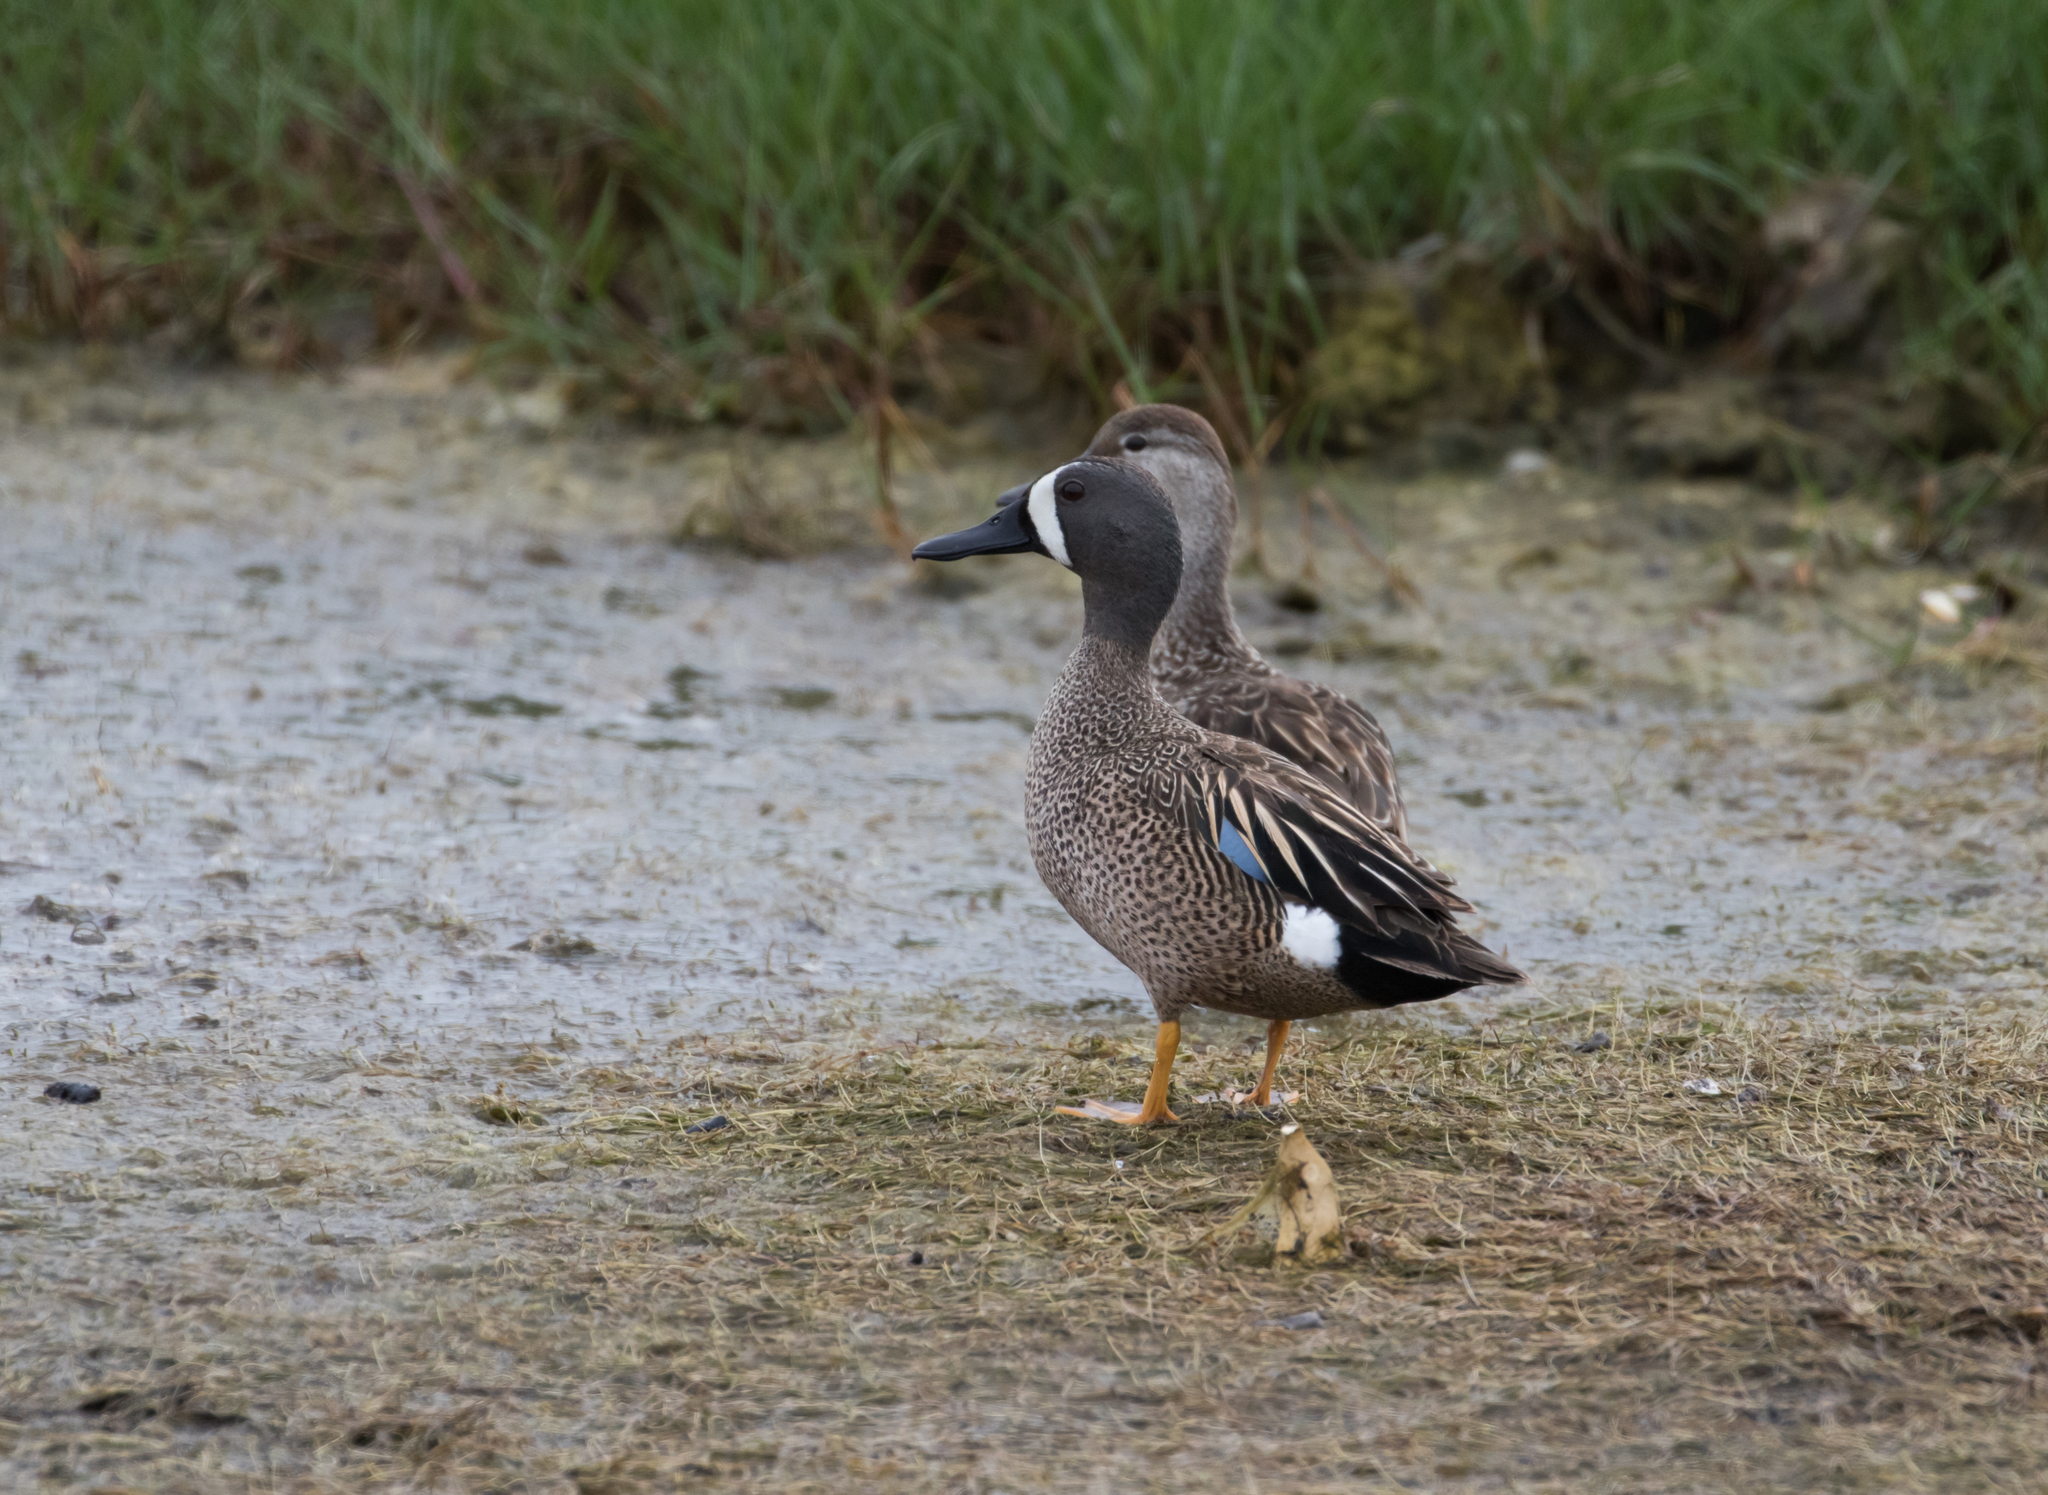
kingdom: Animalia
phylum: Chordata
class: Aves
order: Anseriformes
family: Anatidae
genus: Spatula
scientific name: Spatula discors
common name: Blue-winged teal
